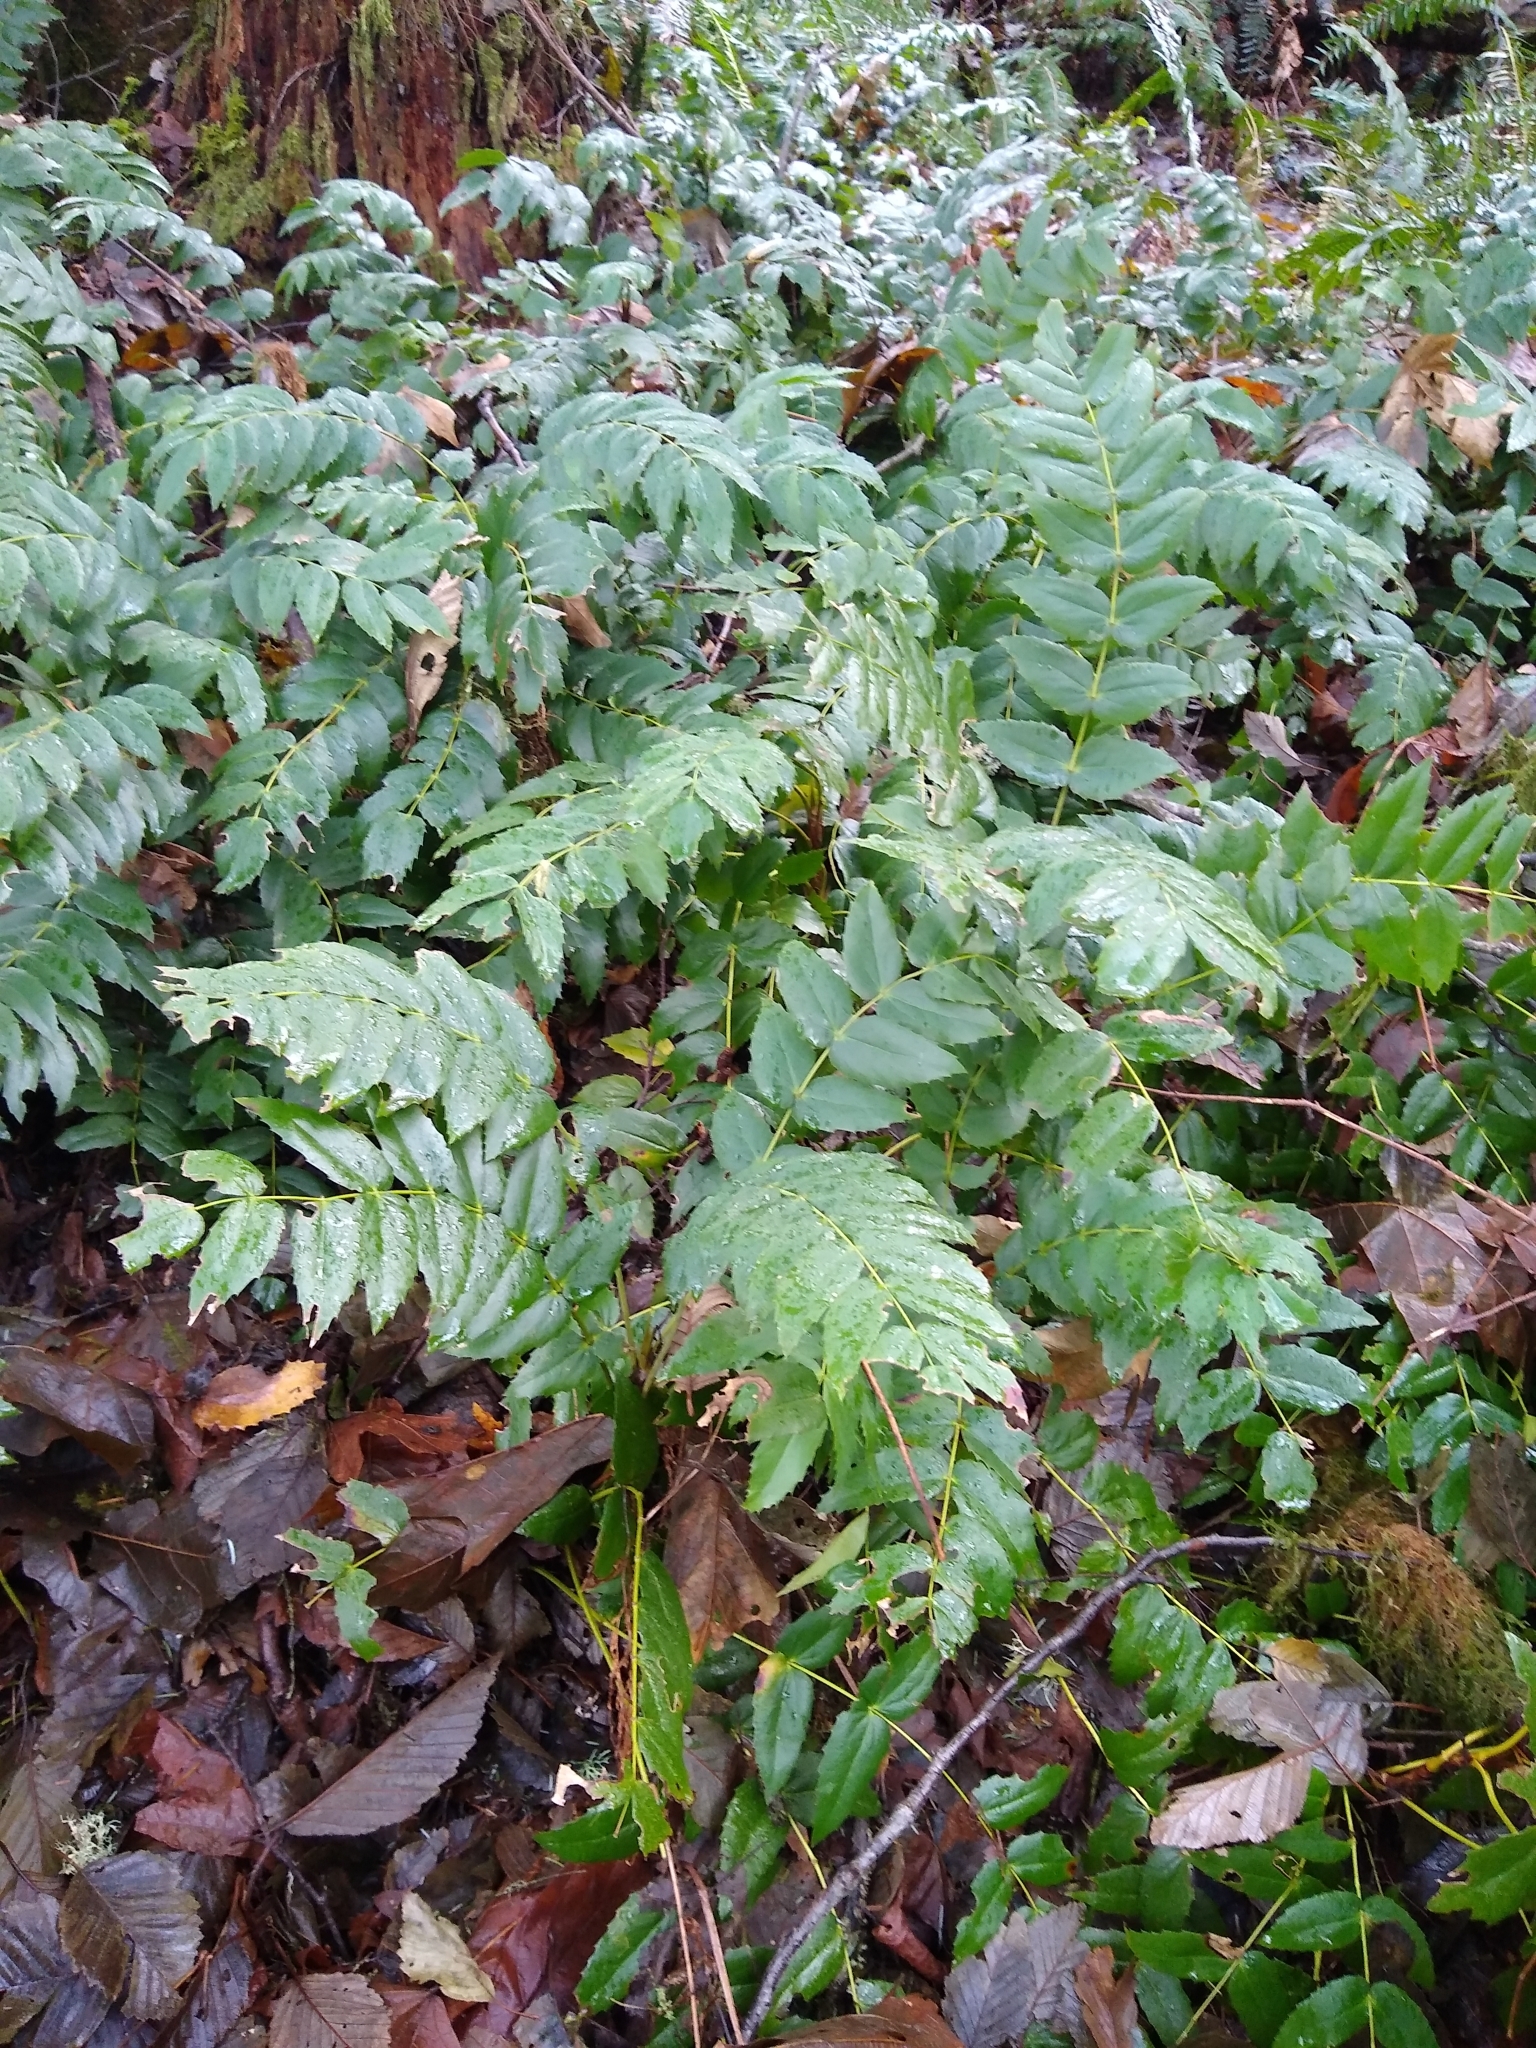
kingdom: Plantae
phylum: Tracheophyta
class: Magnoliopsida
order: Ranunculales
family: Berberidaceae
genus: Mahonia
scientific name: Mahonia nervosa
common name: Cascade oregon-grape
